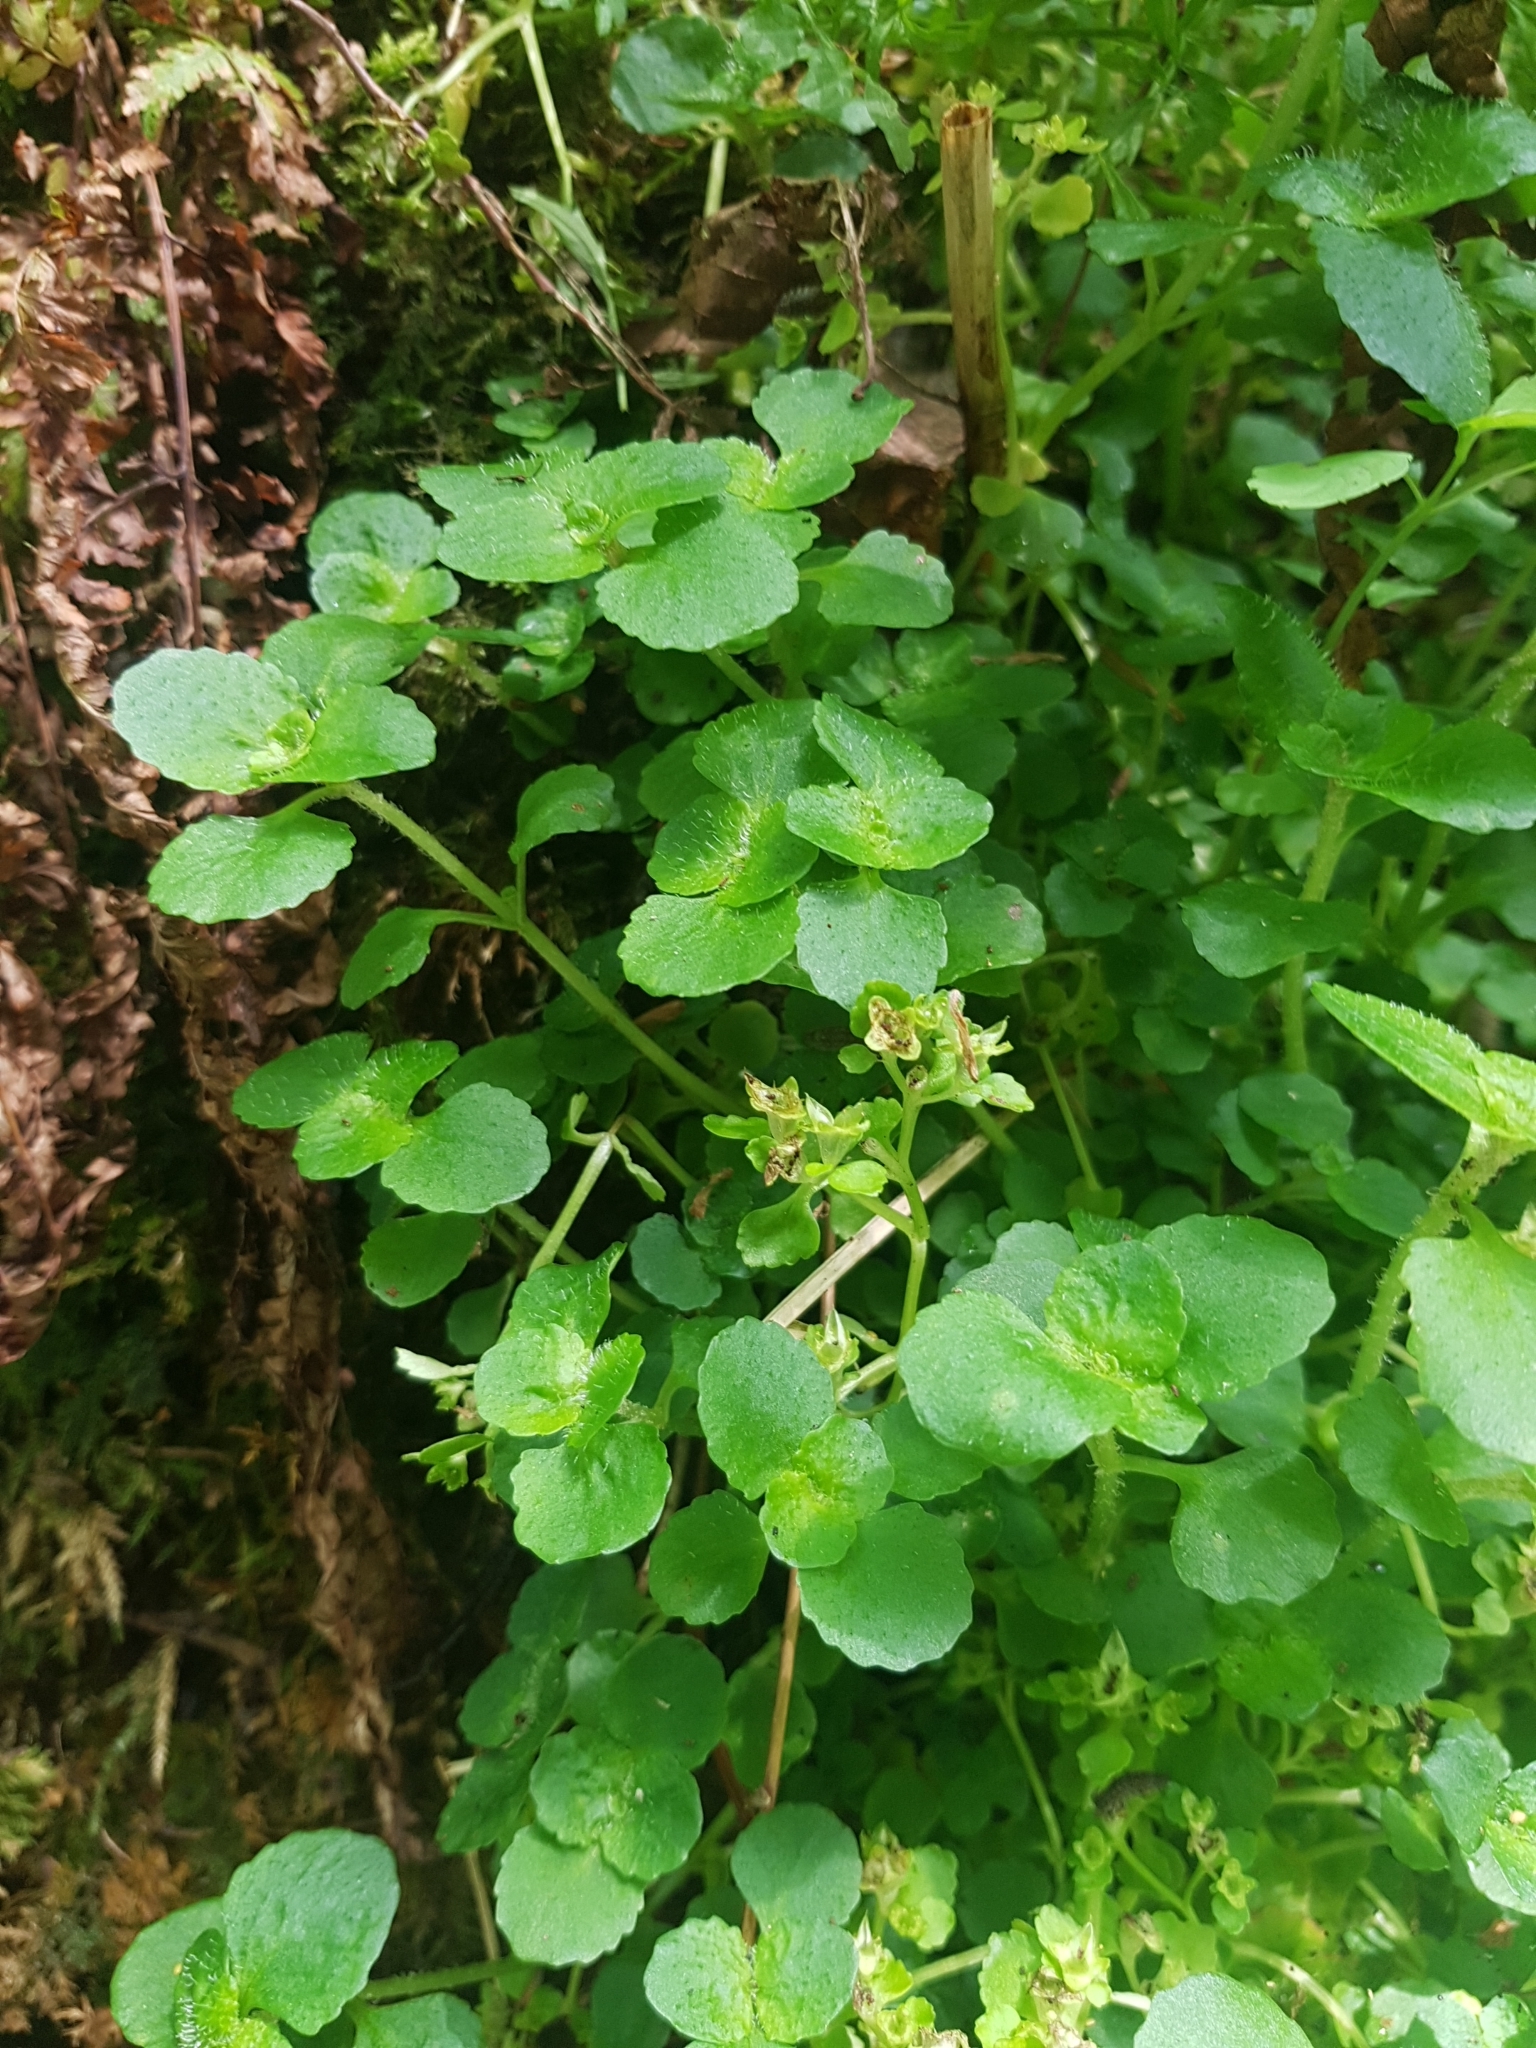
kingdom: Plantae
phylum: Tracheophyta
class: Magnoliopsida
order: Saxifragales
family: Saxifragaceae
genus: Chrysosplenium
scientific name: Chrysosplenium oppositifolium
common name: Opposite-leaved golden-saxifrage
